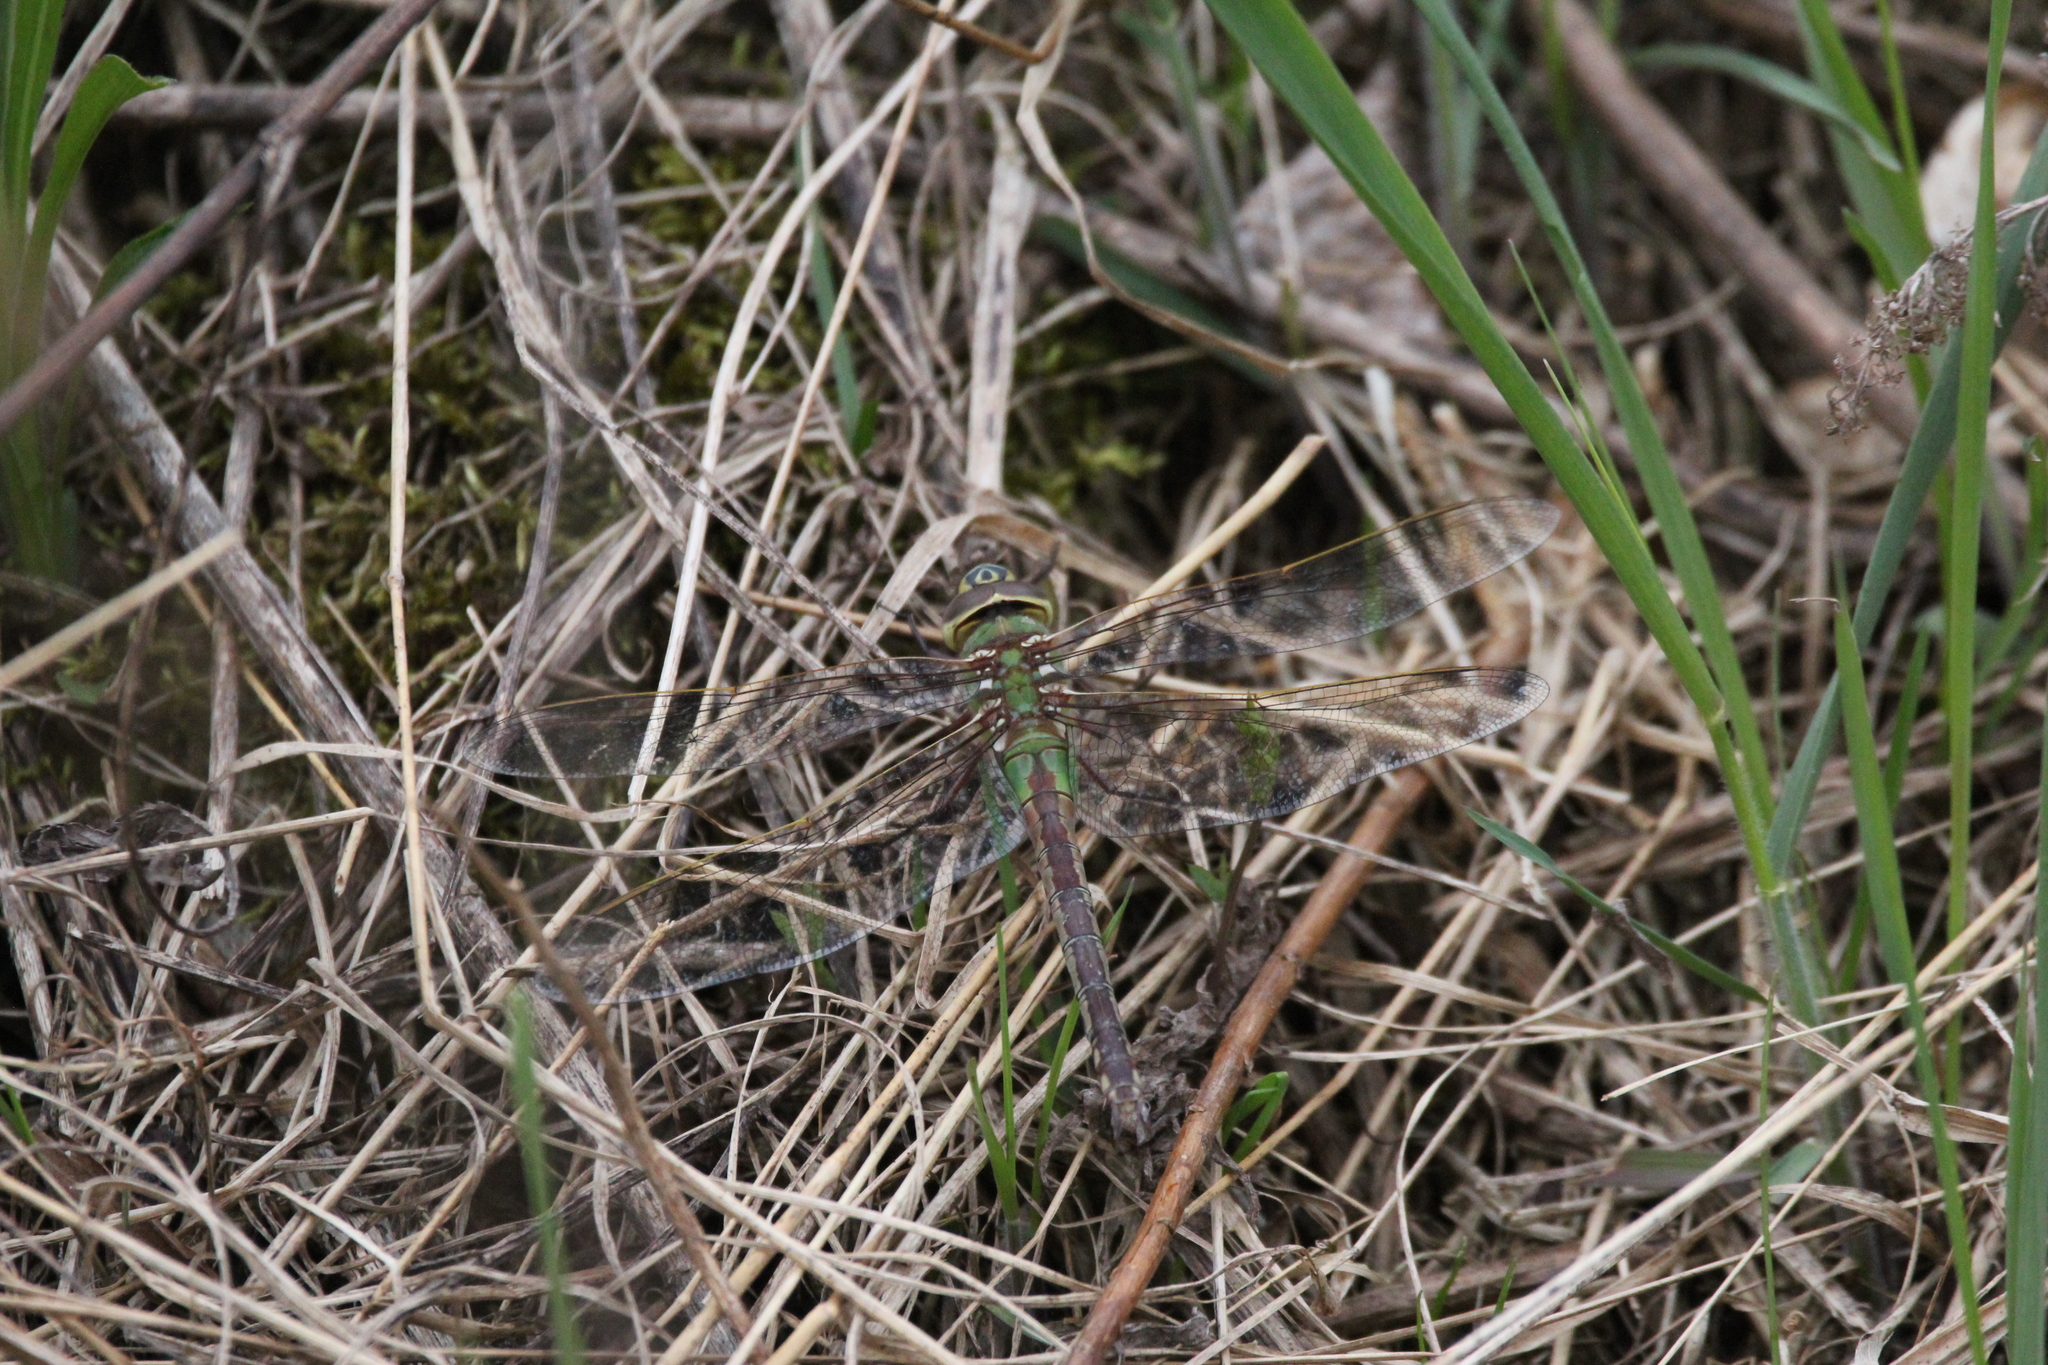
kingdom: Animalia
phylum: Arthropoda
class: Insecta
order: Odonata
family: Aeshnidae
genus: Anax
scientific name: Anax junius
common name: Common green darner
